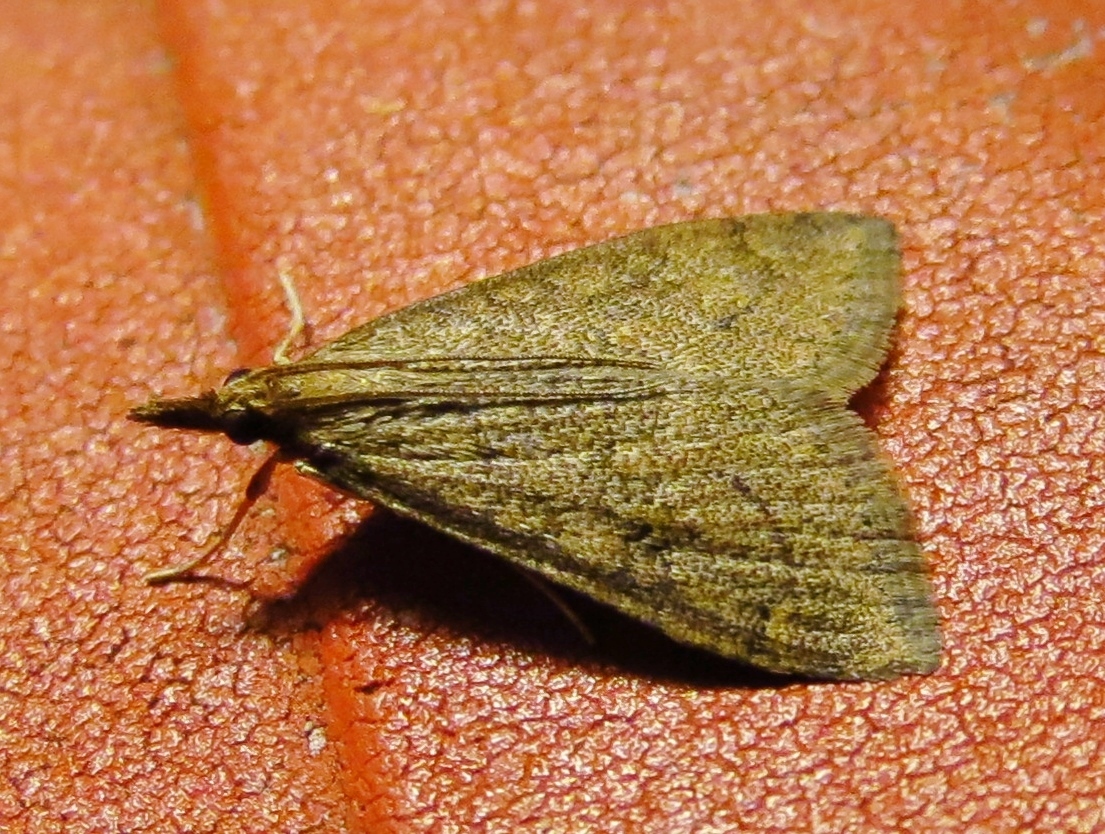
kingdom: Animalia
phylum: Arthropoda
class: Insecta
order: Lepidoptera
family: Crambidae
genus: Udea
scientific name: Udea rubigalis
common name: Celery leaftier moth
